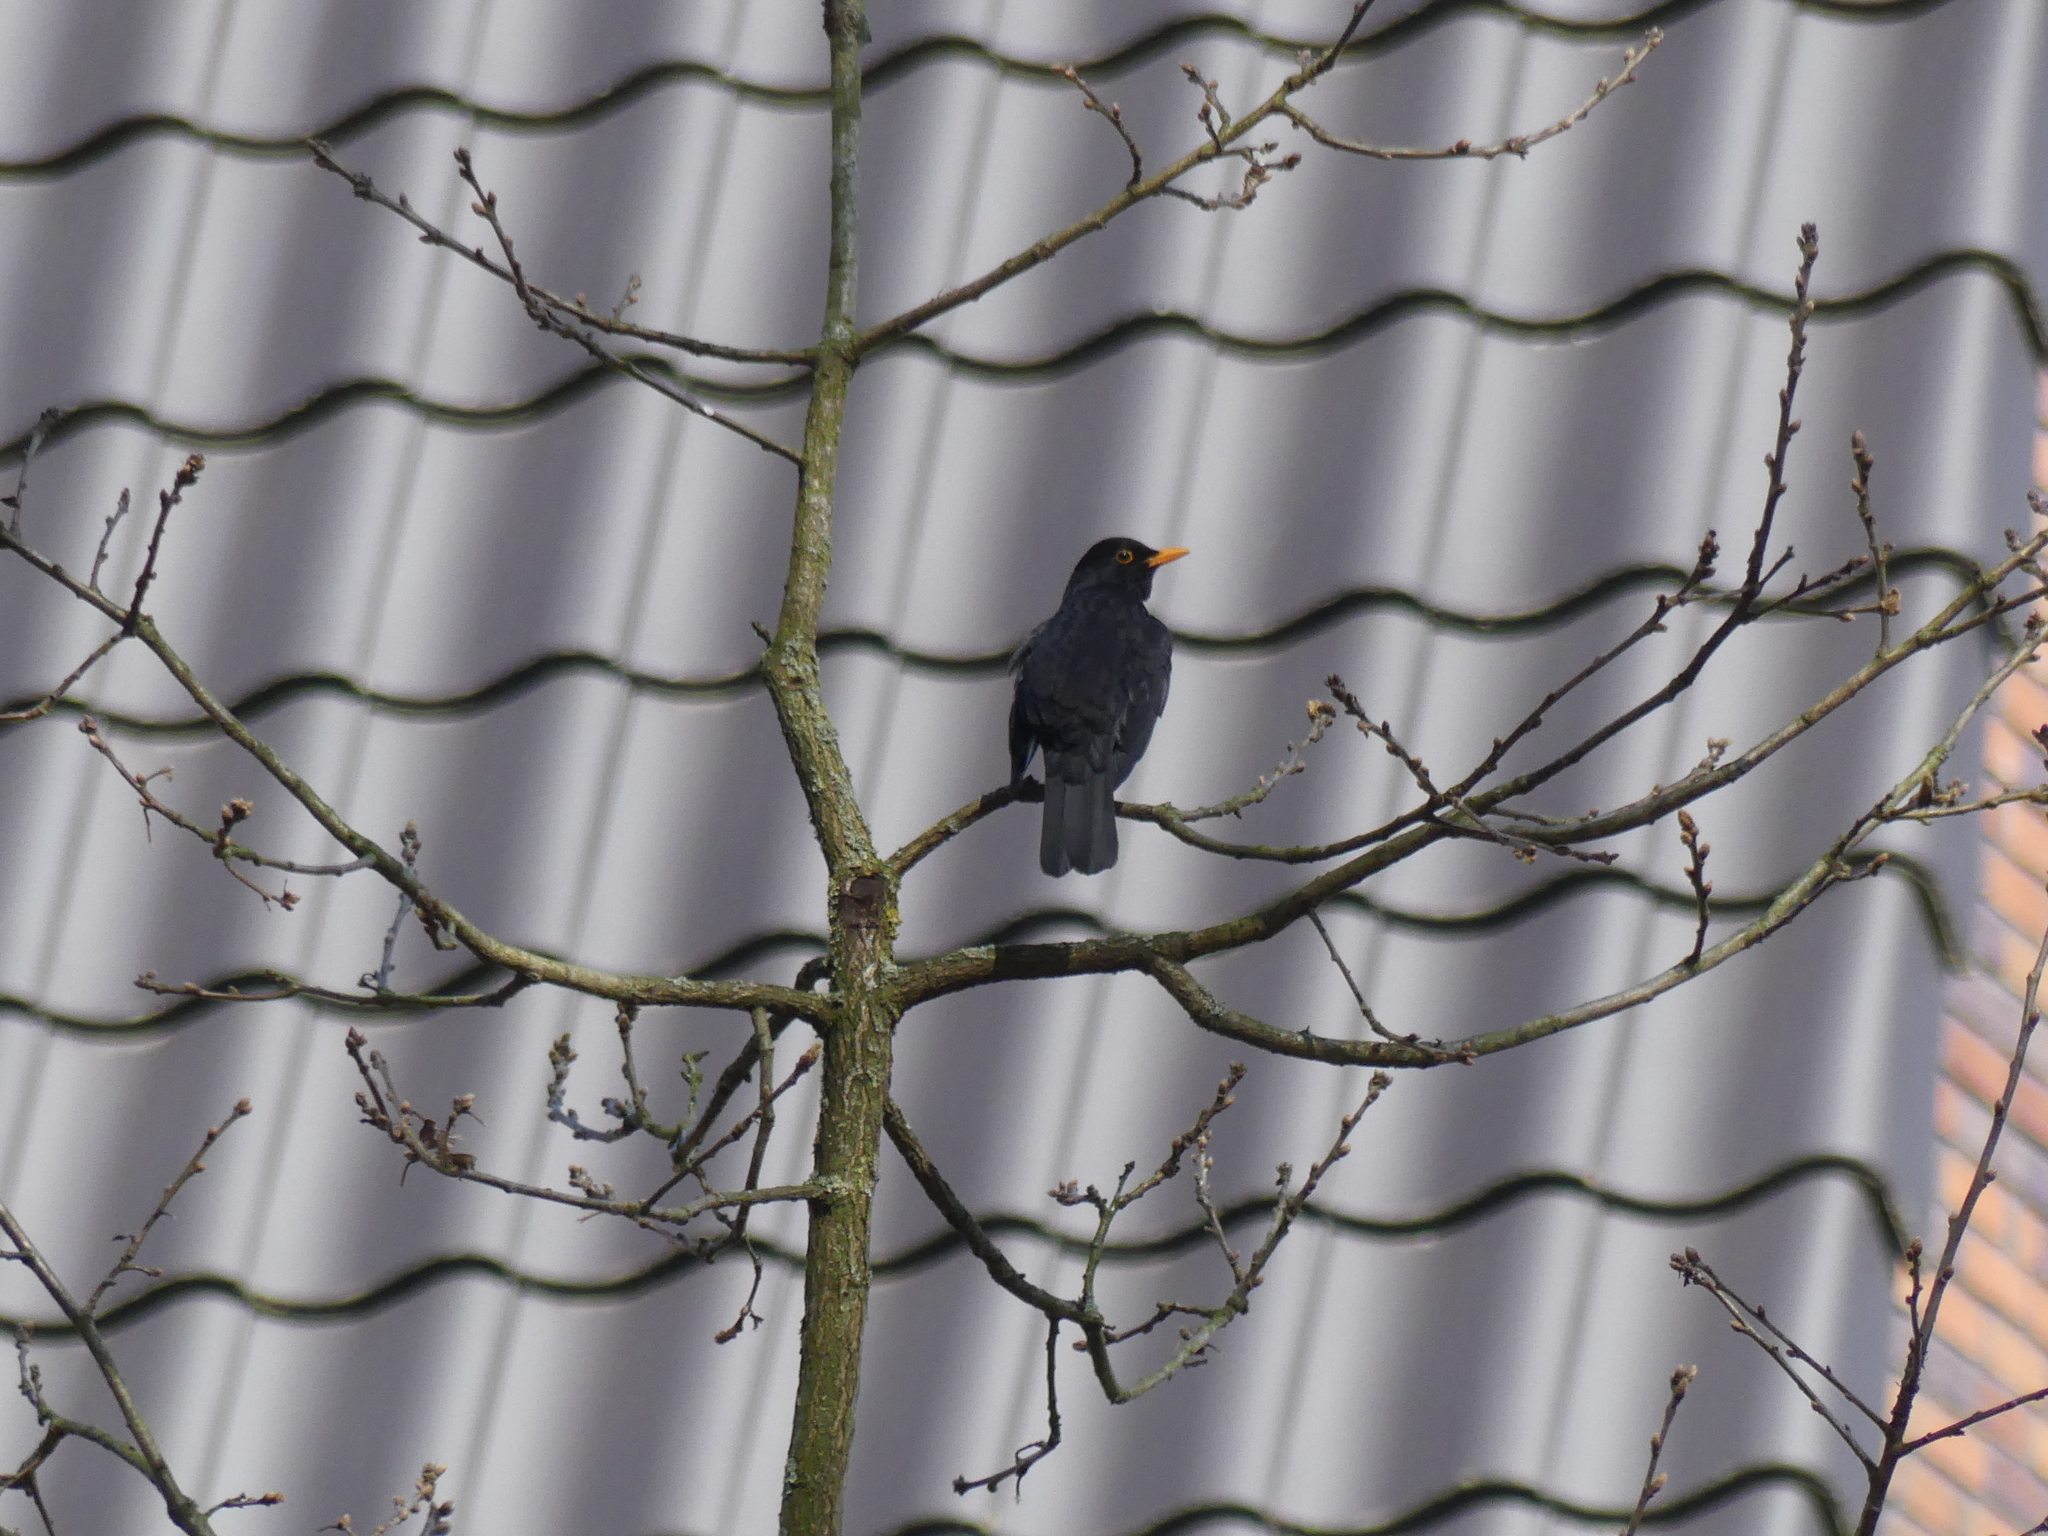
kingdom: Animalia
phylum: Chordata
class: Aves
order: Passeriformes
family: Turdidae
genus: Turdus
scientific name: Turdus merula
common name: Common blackbird
